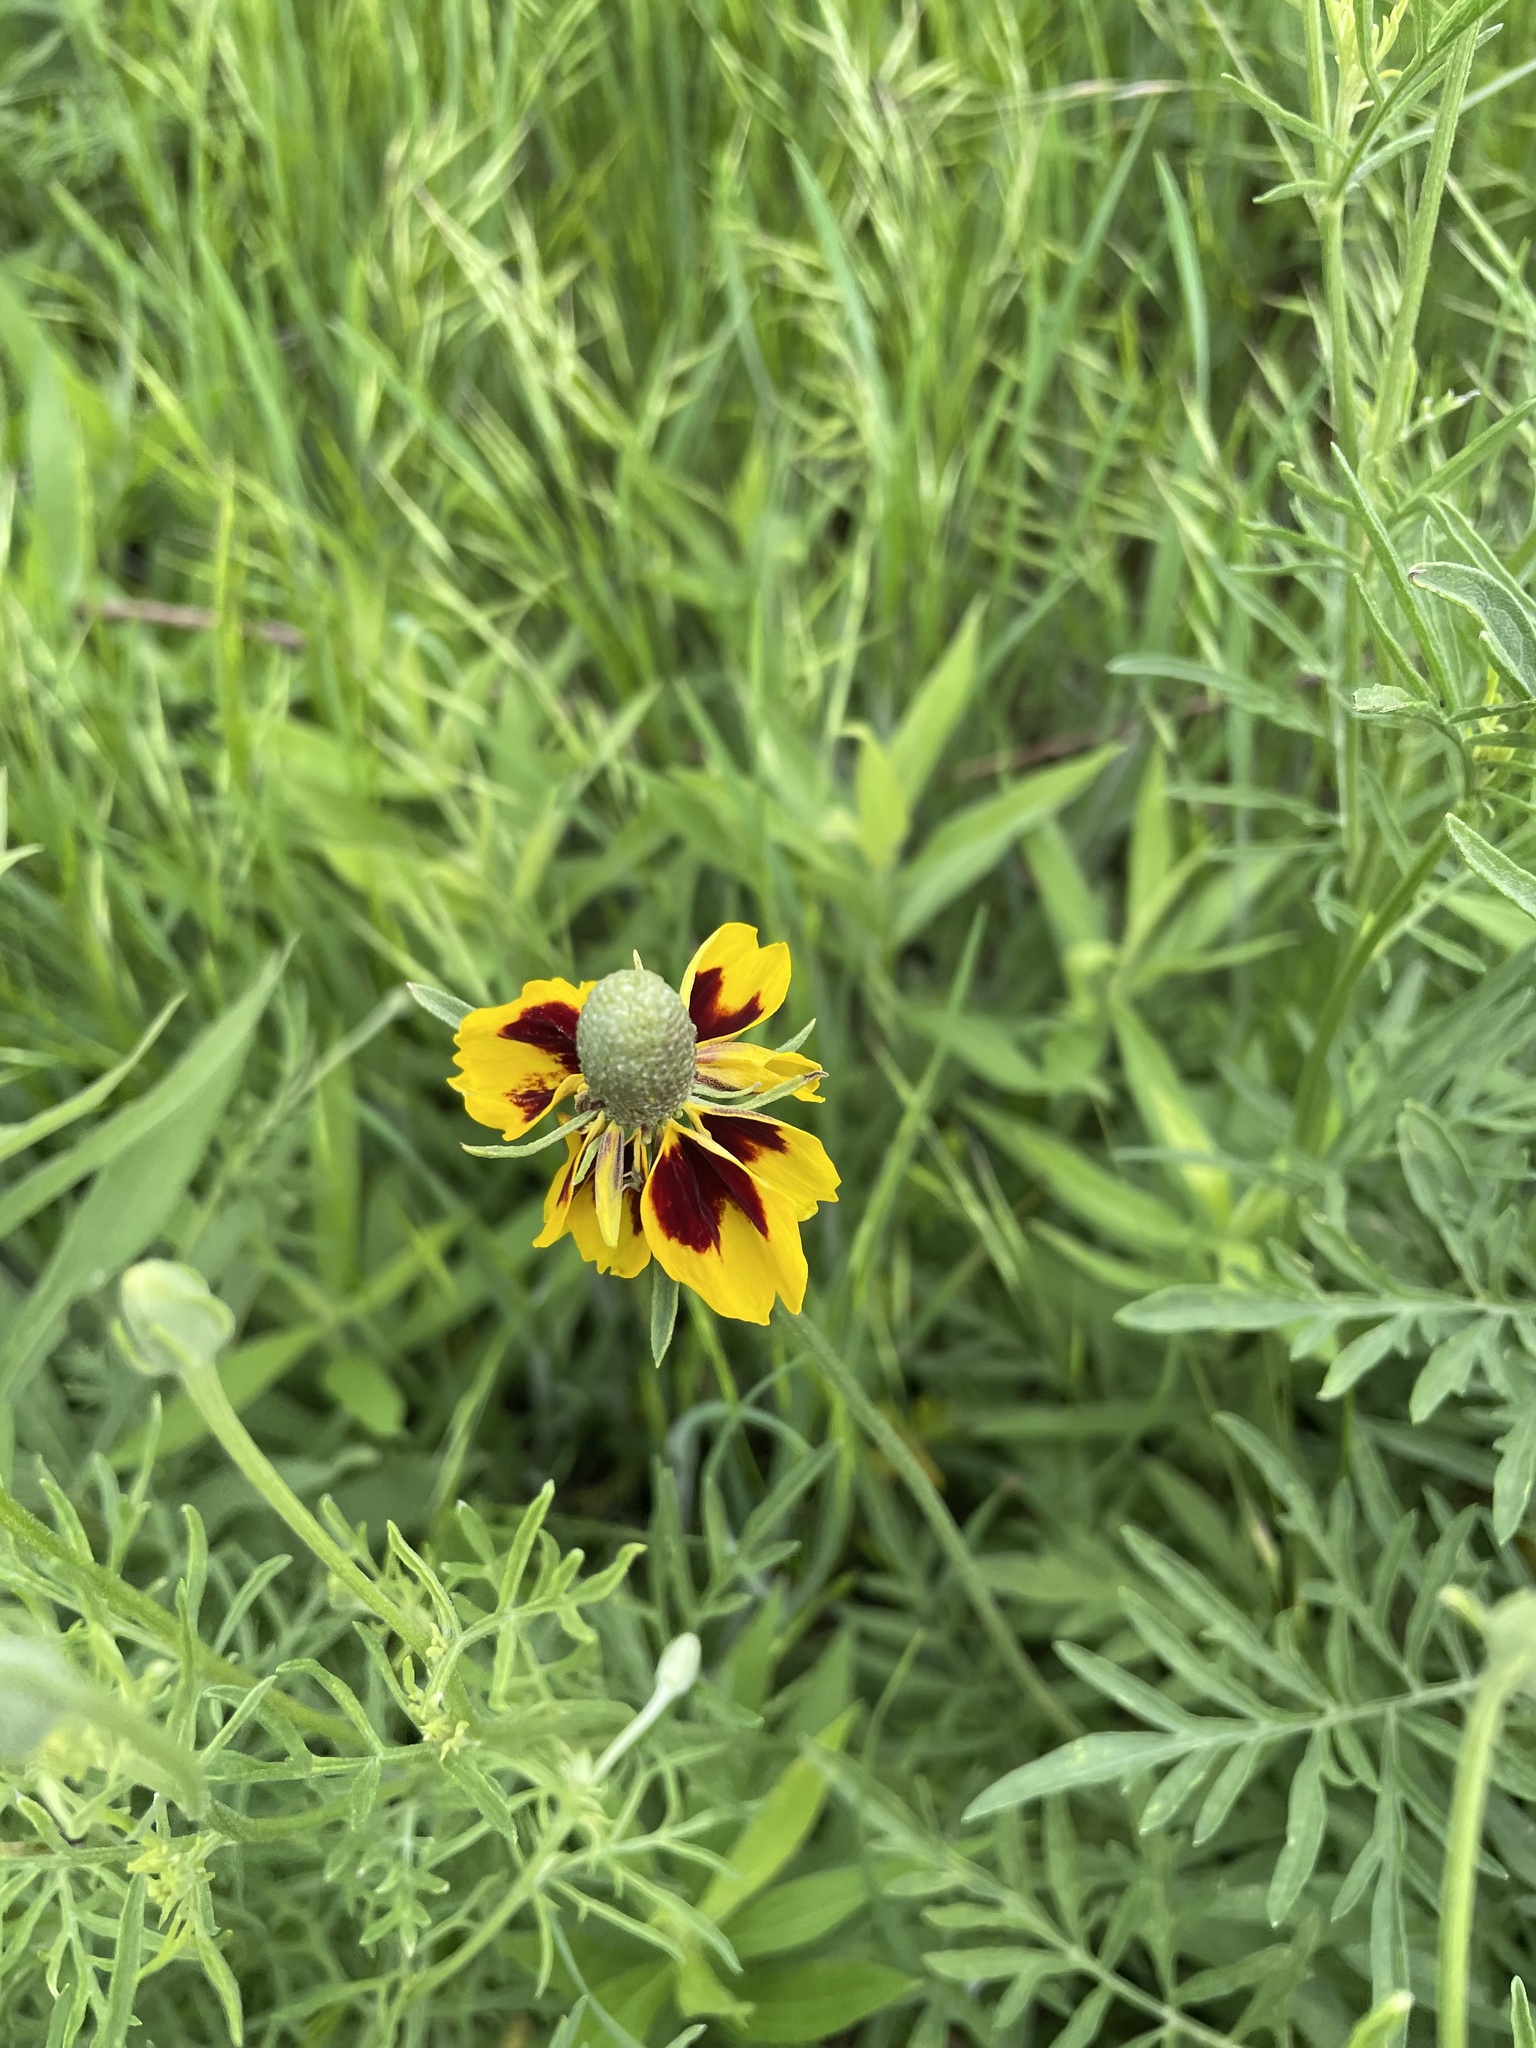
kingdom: Plantae
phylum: Tracheophyta
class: Magnoliopsida
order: Asterales
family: Asteraceae
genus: Ratibida
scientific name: Ratibida columnifera
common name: Prairie coneflower
